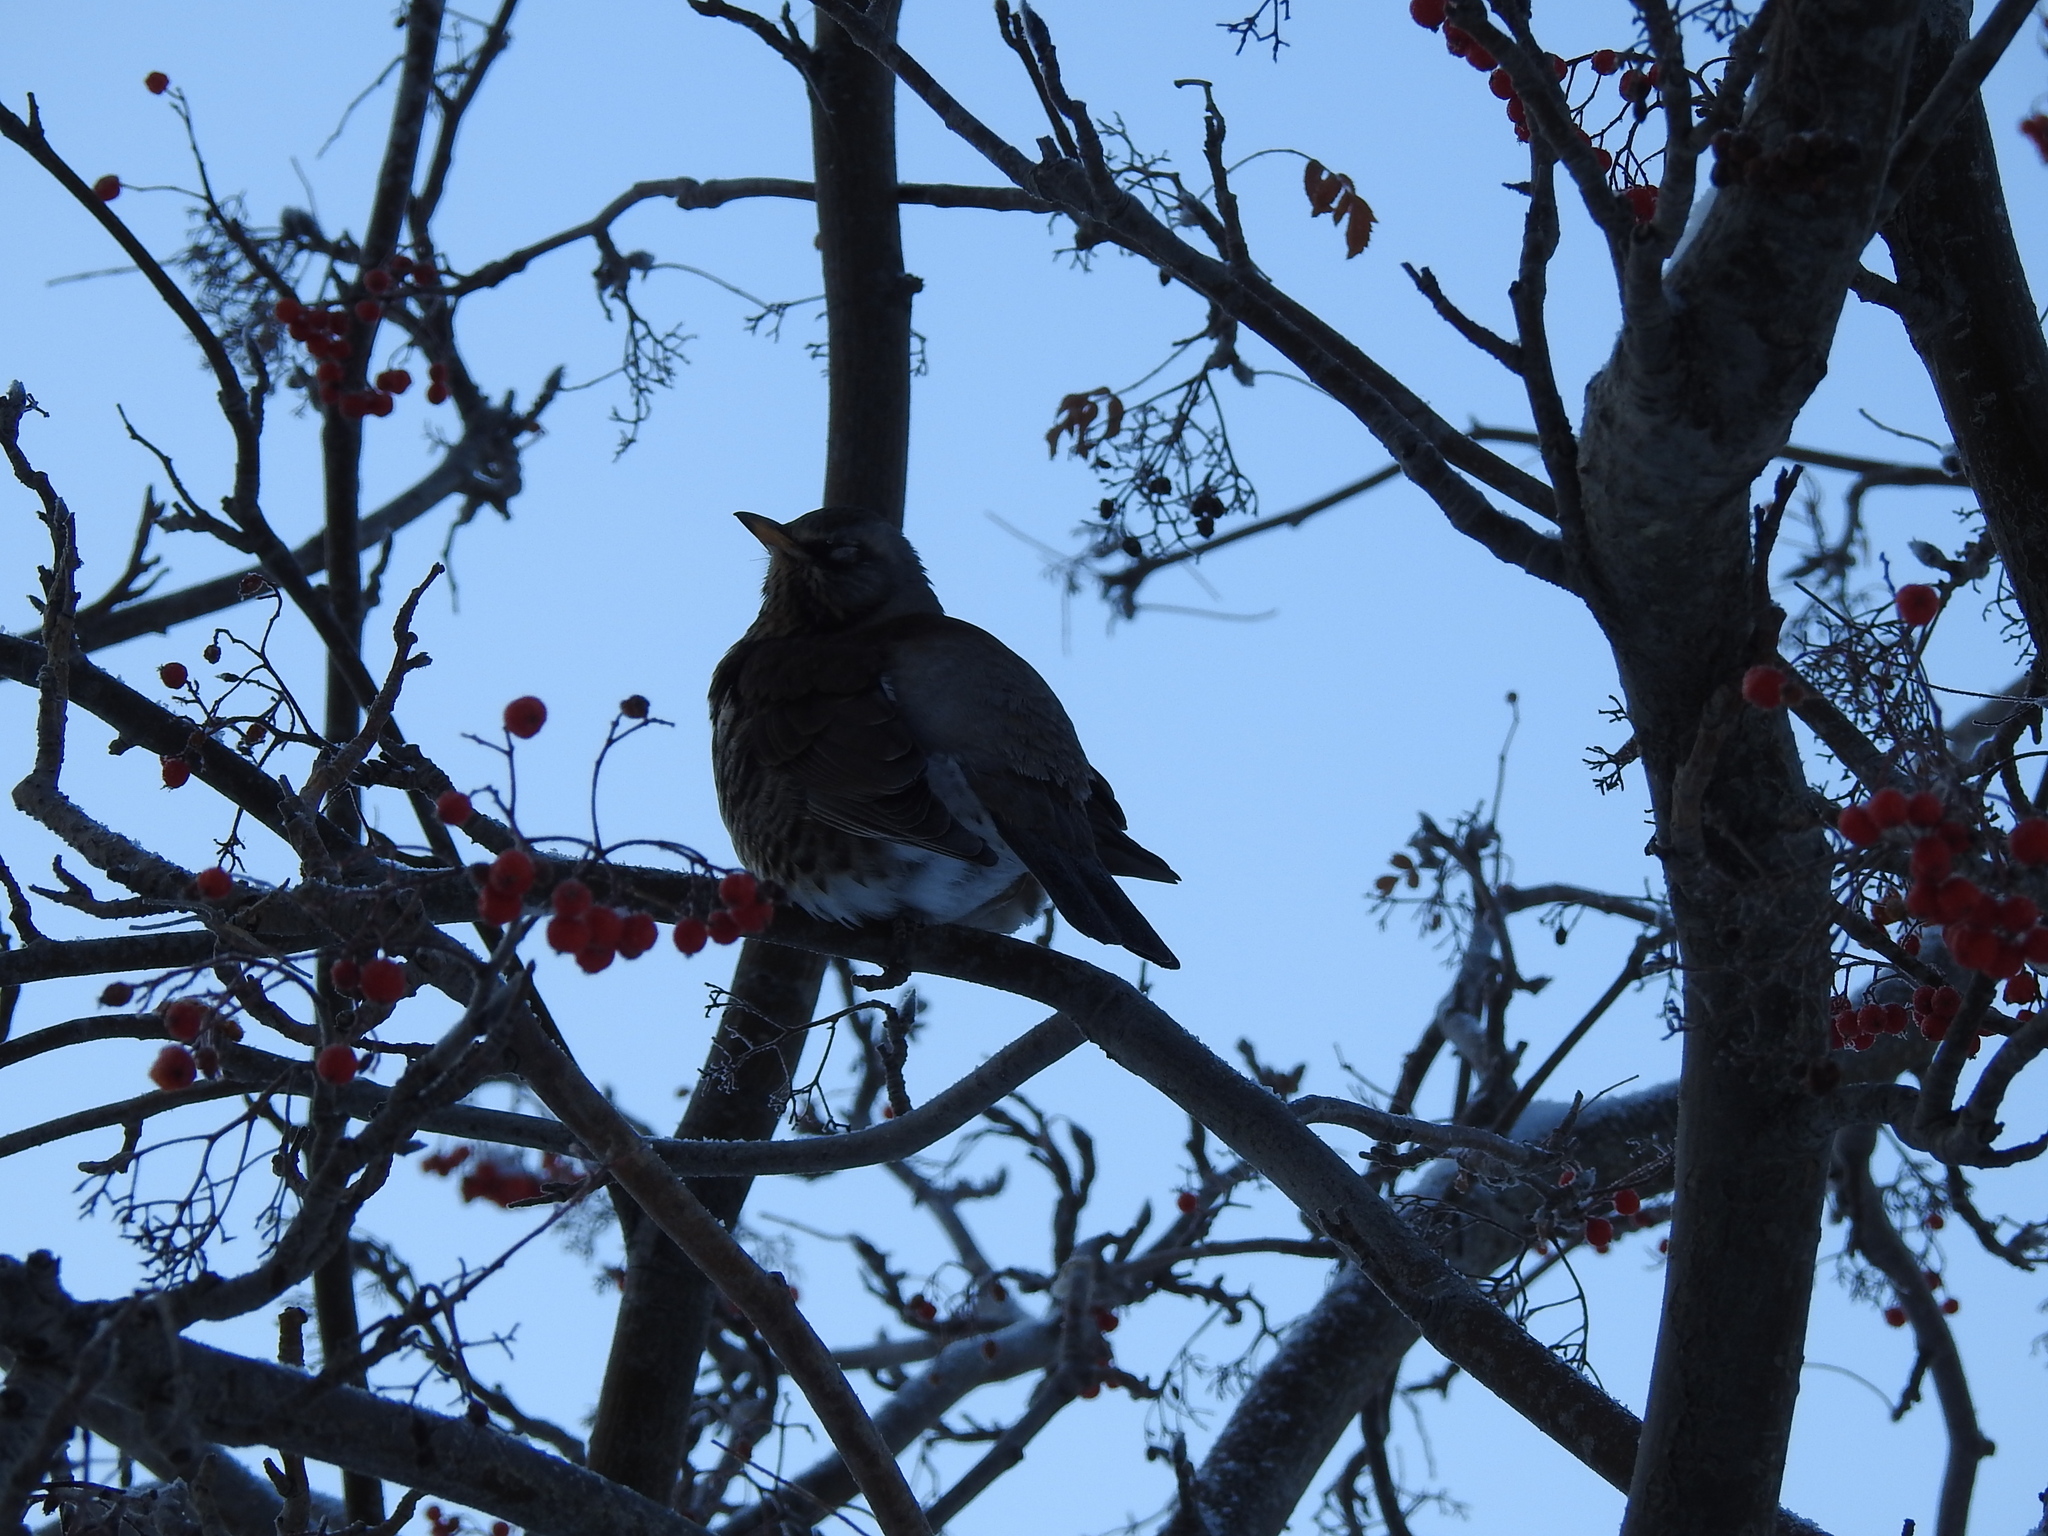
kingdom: Animalia
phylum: Chordata
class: Aves
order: Passeriformes
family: Turdidae
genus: Turdus
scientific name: Turdus pilaris
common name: Fieldfare
